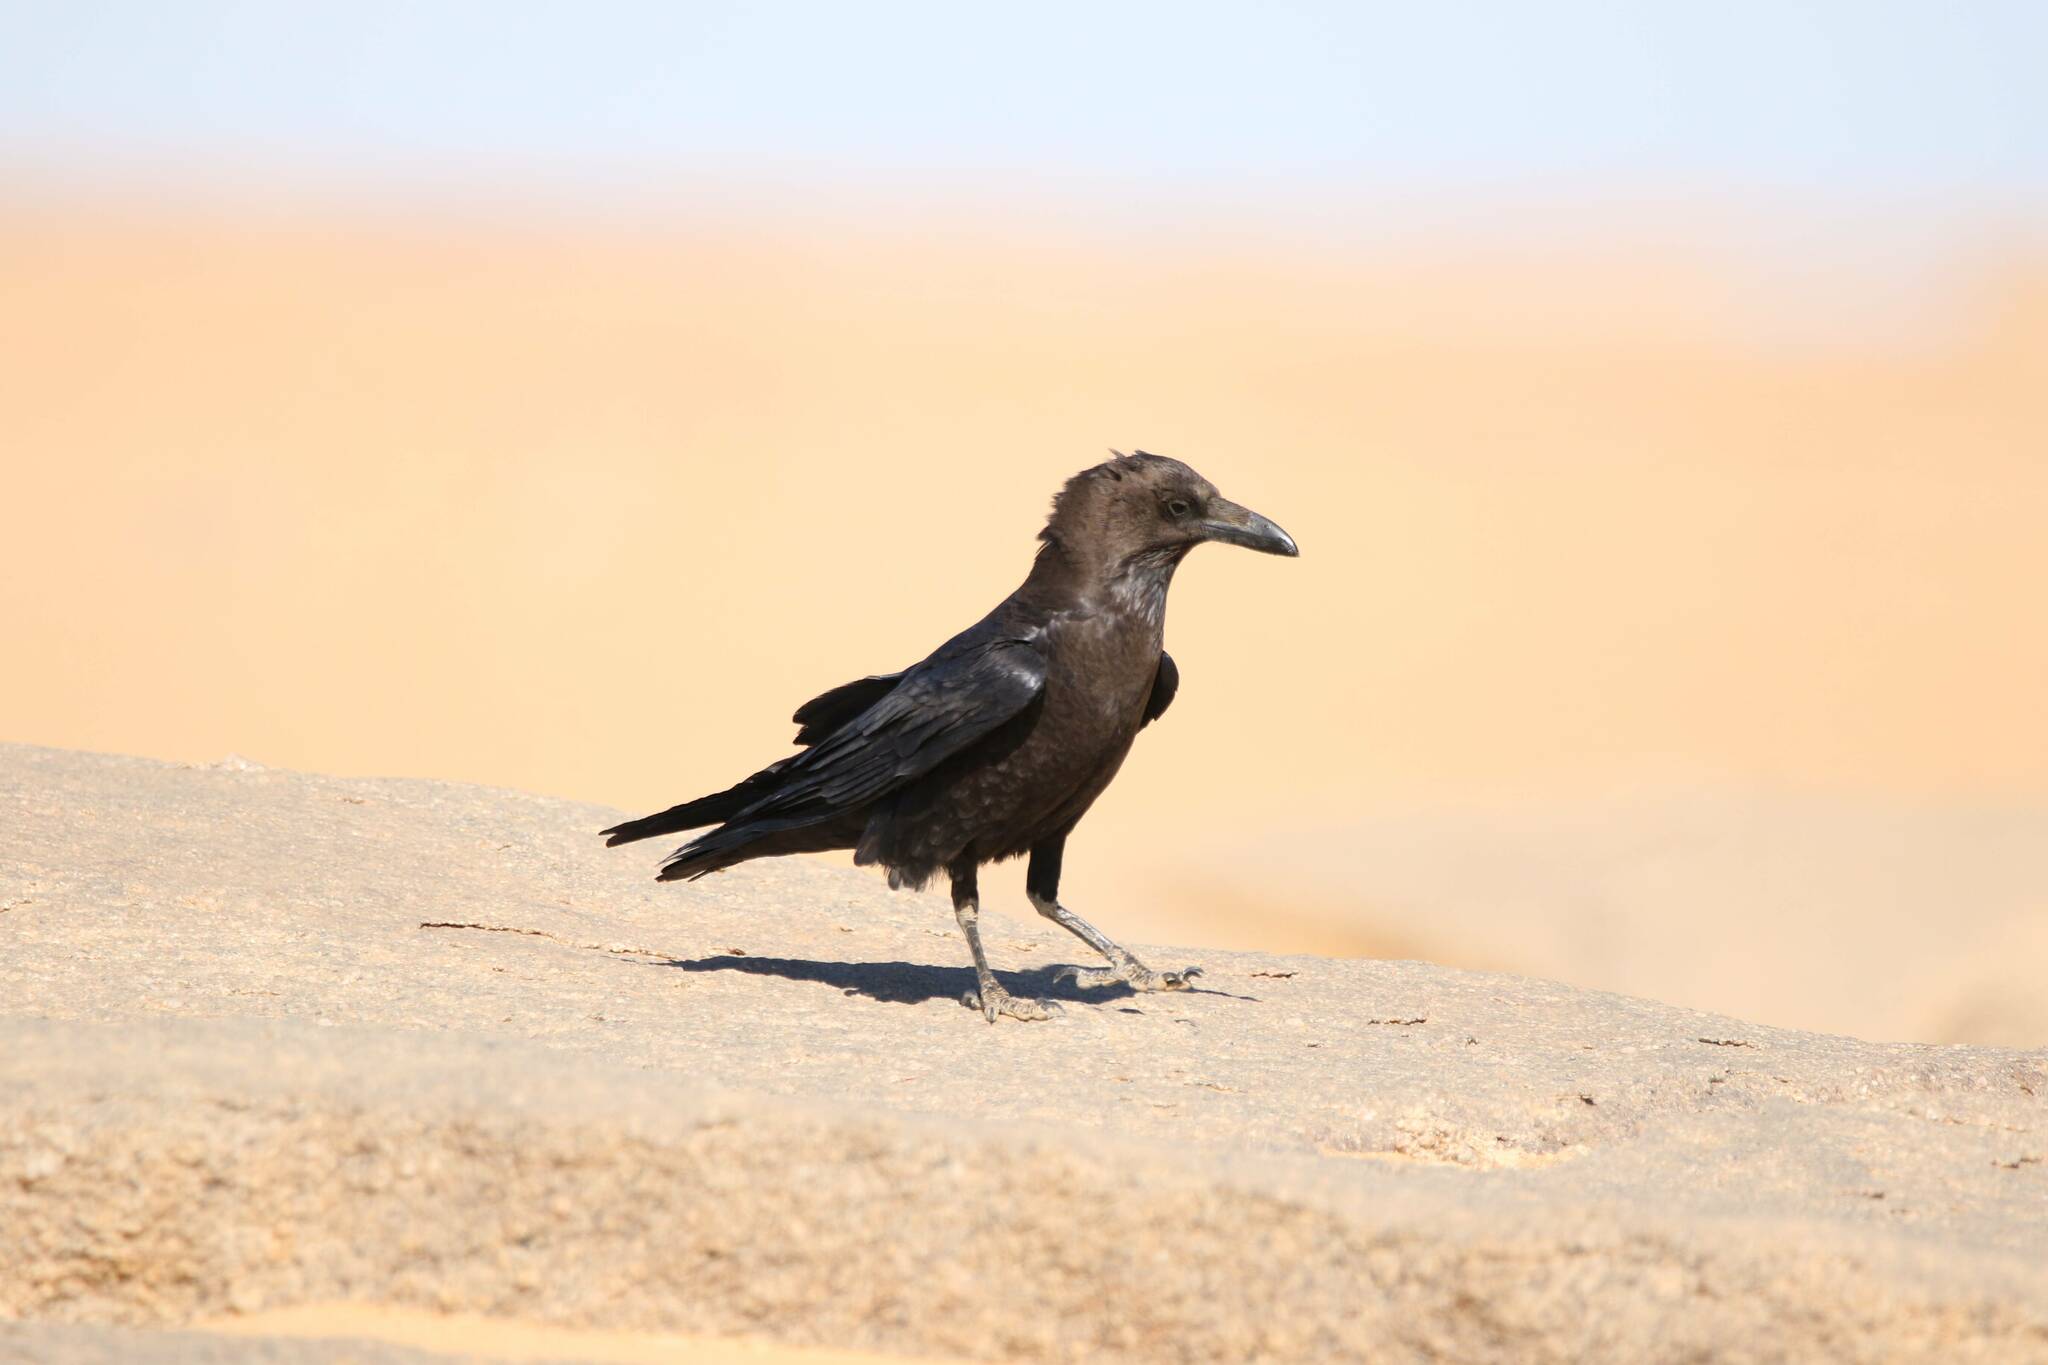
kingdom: Animalia
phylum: Chordata
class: Aves
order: Passeriformes
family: Corvidae
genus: Corvus
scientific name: Corvus ruficollis
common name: Brown-necked raven
